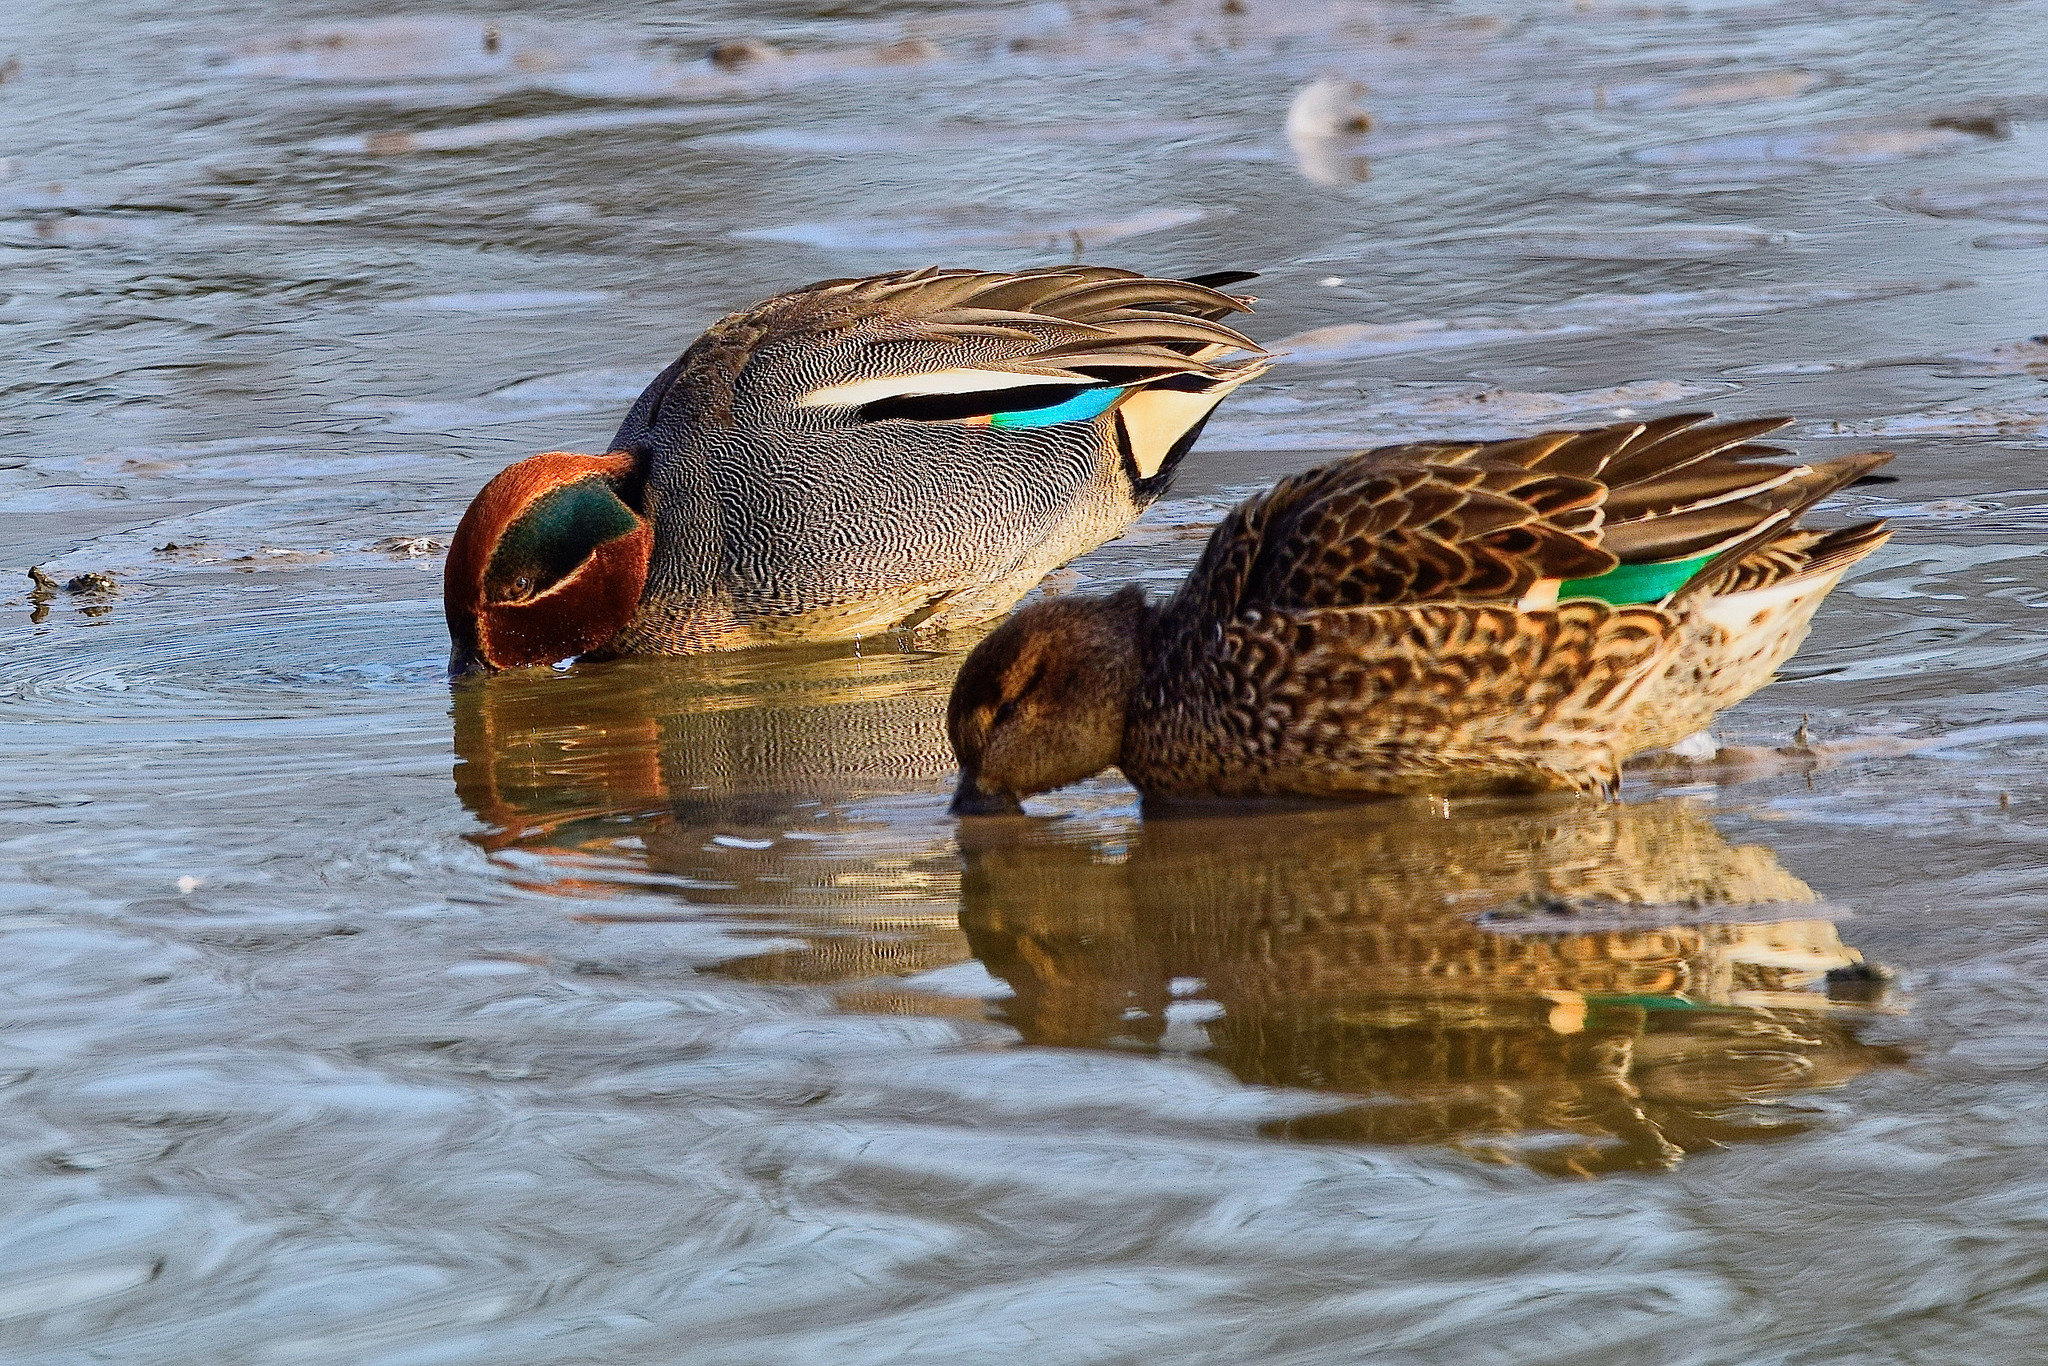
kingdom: Animalia
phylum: Chordata
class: Aves
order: Anseriformes
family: Anatidae
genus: Anas
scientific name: Anas crecca
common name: Eurasian teal
